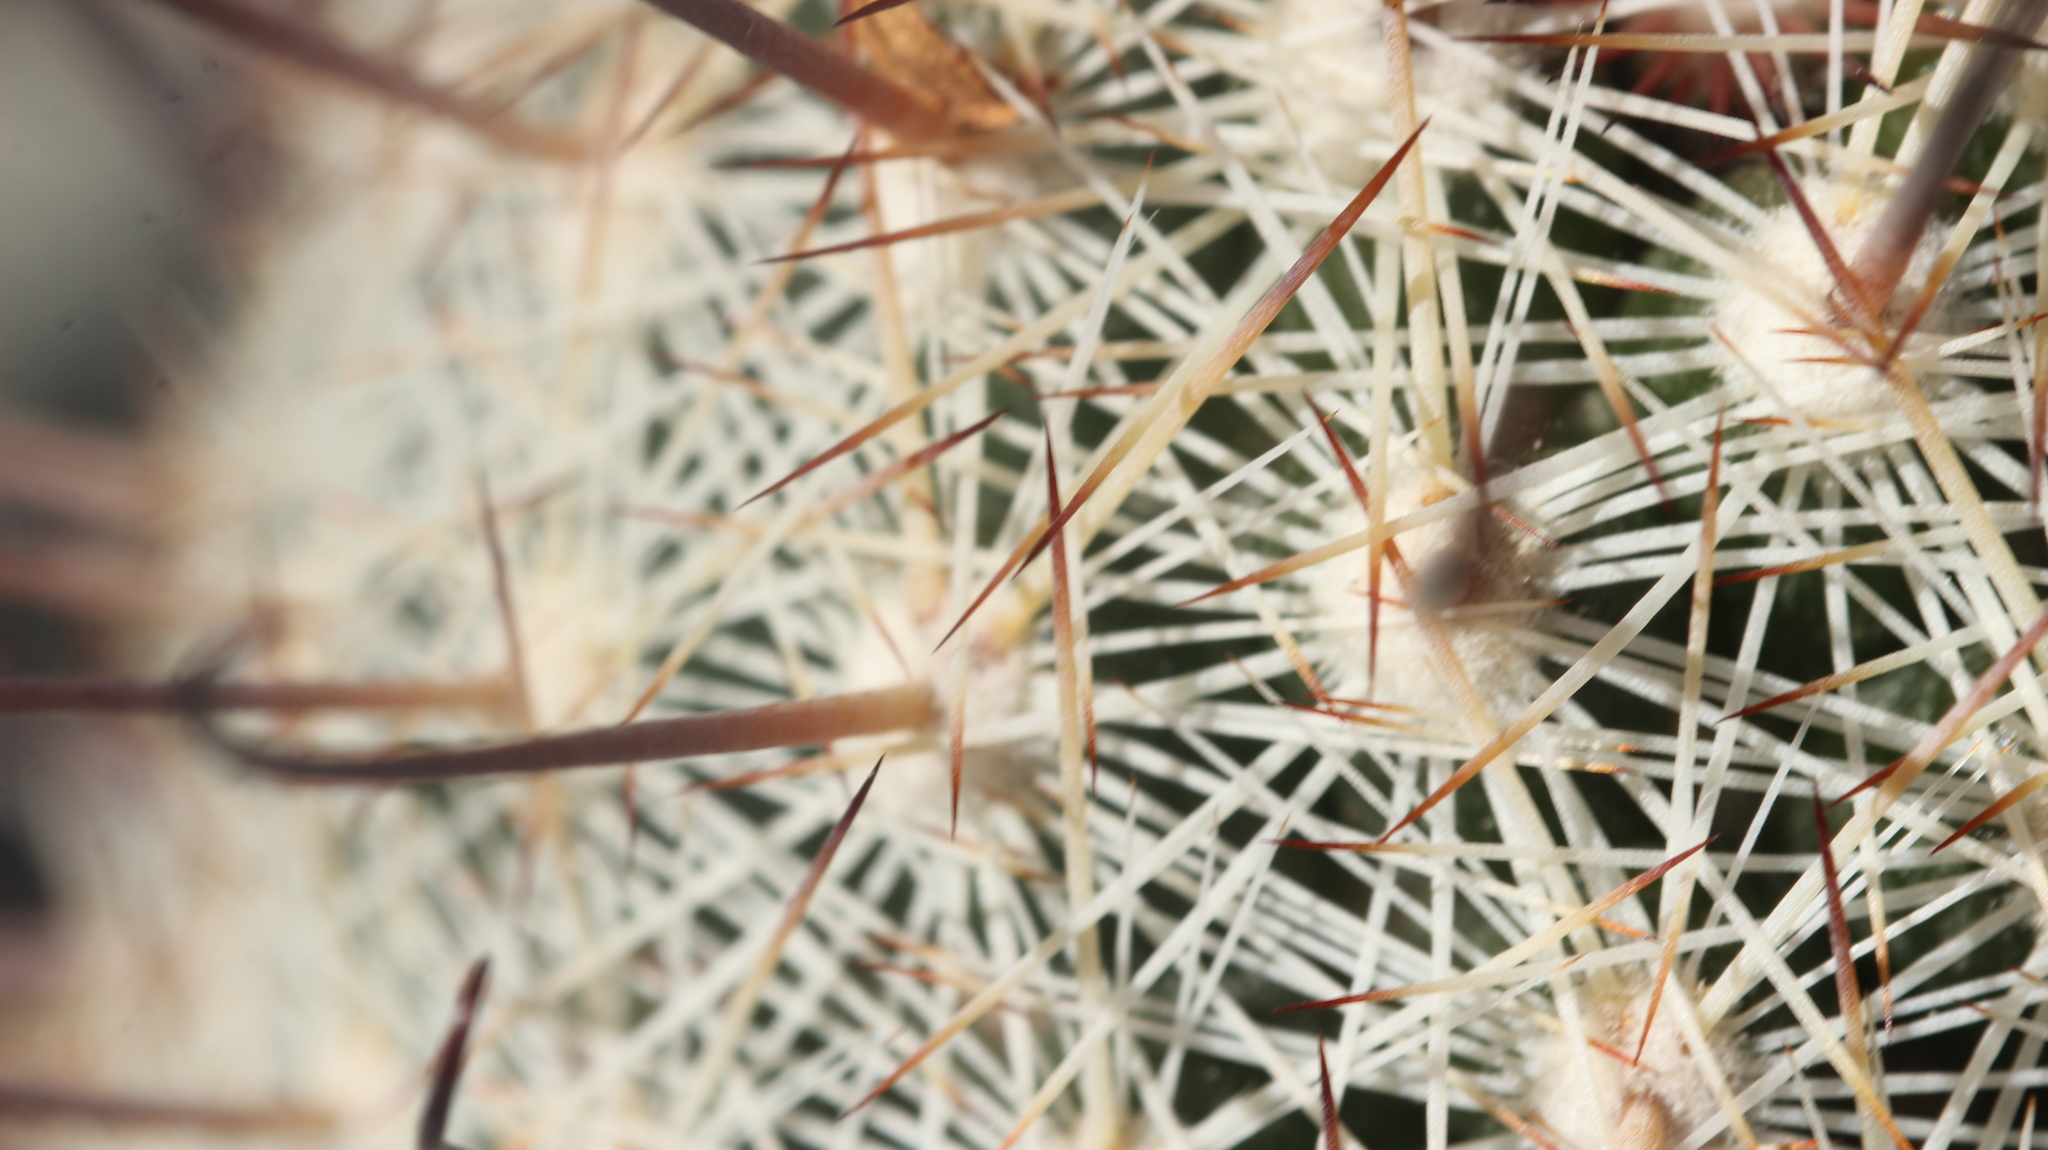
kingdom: Plantae
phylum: Tracheophyta
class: Magnoliopsida
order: Caryophyllales
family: Cactaceae
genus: Cochemiea
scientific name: Cochemiea grahamii
